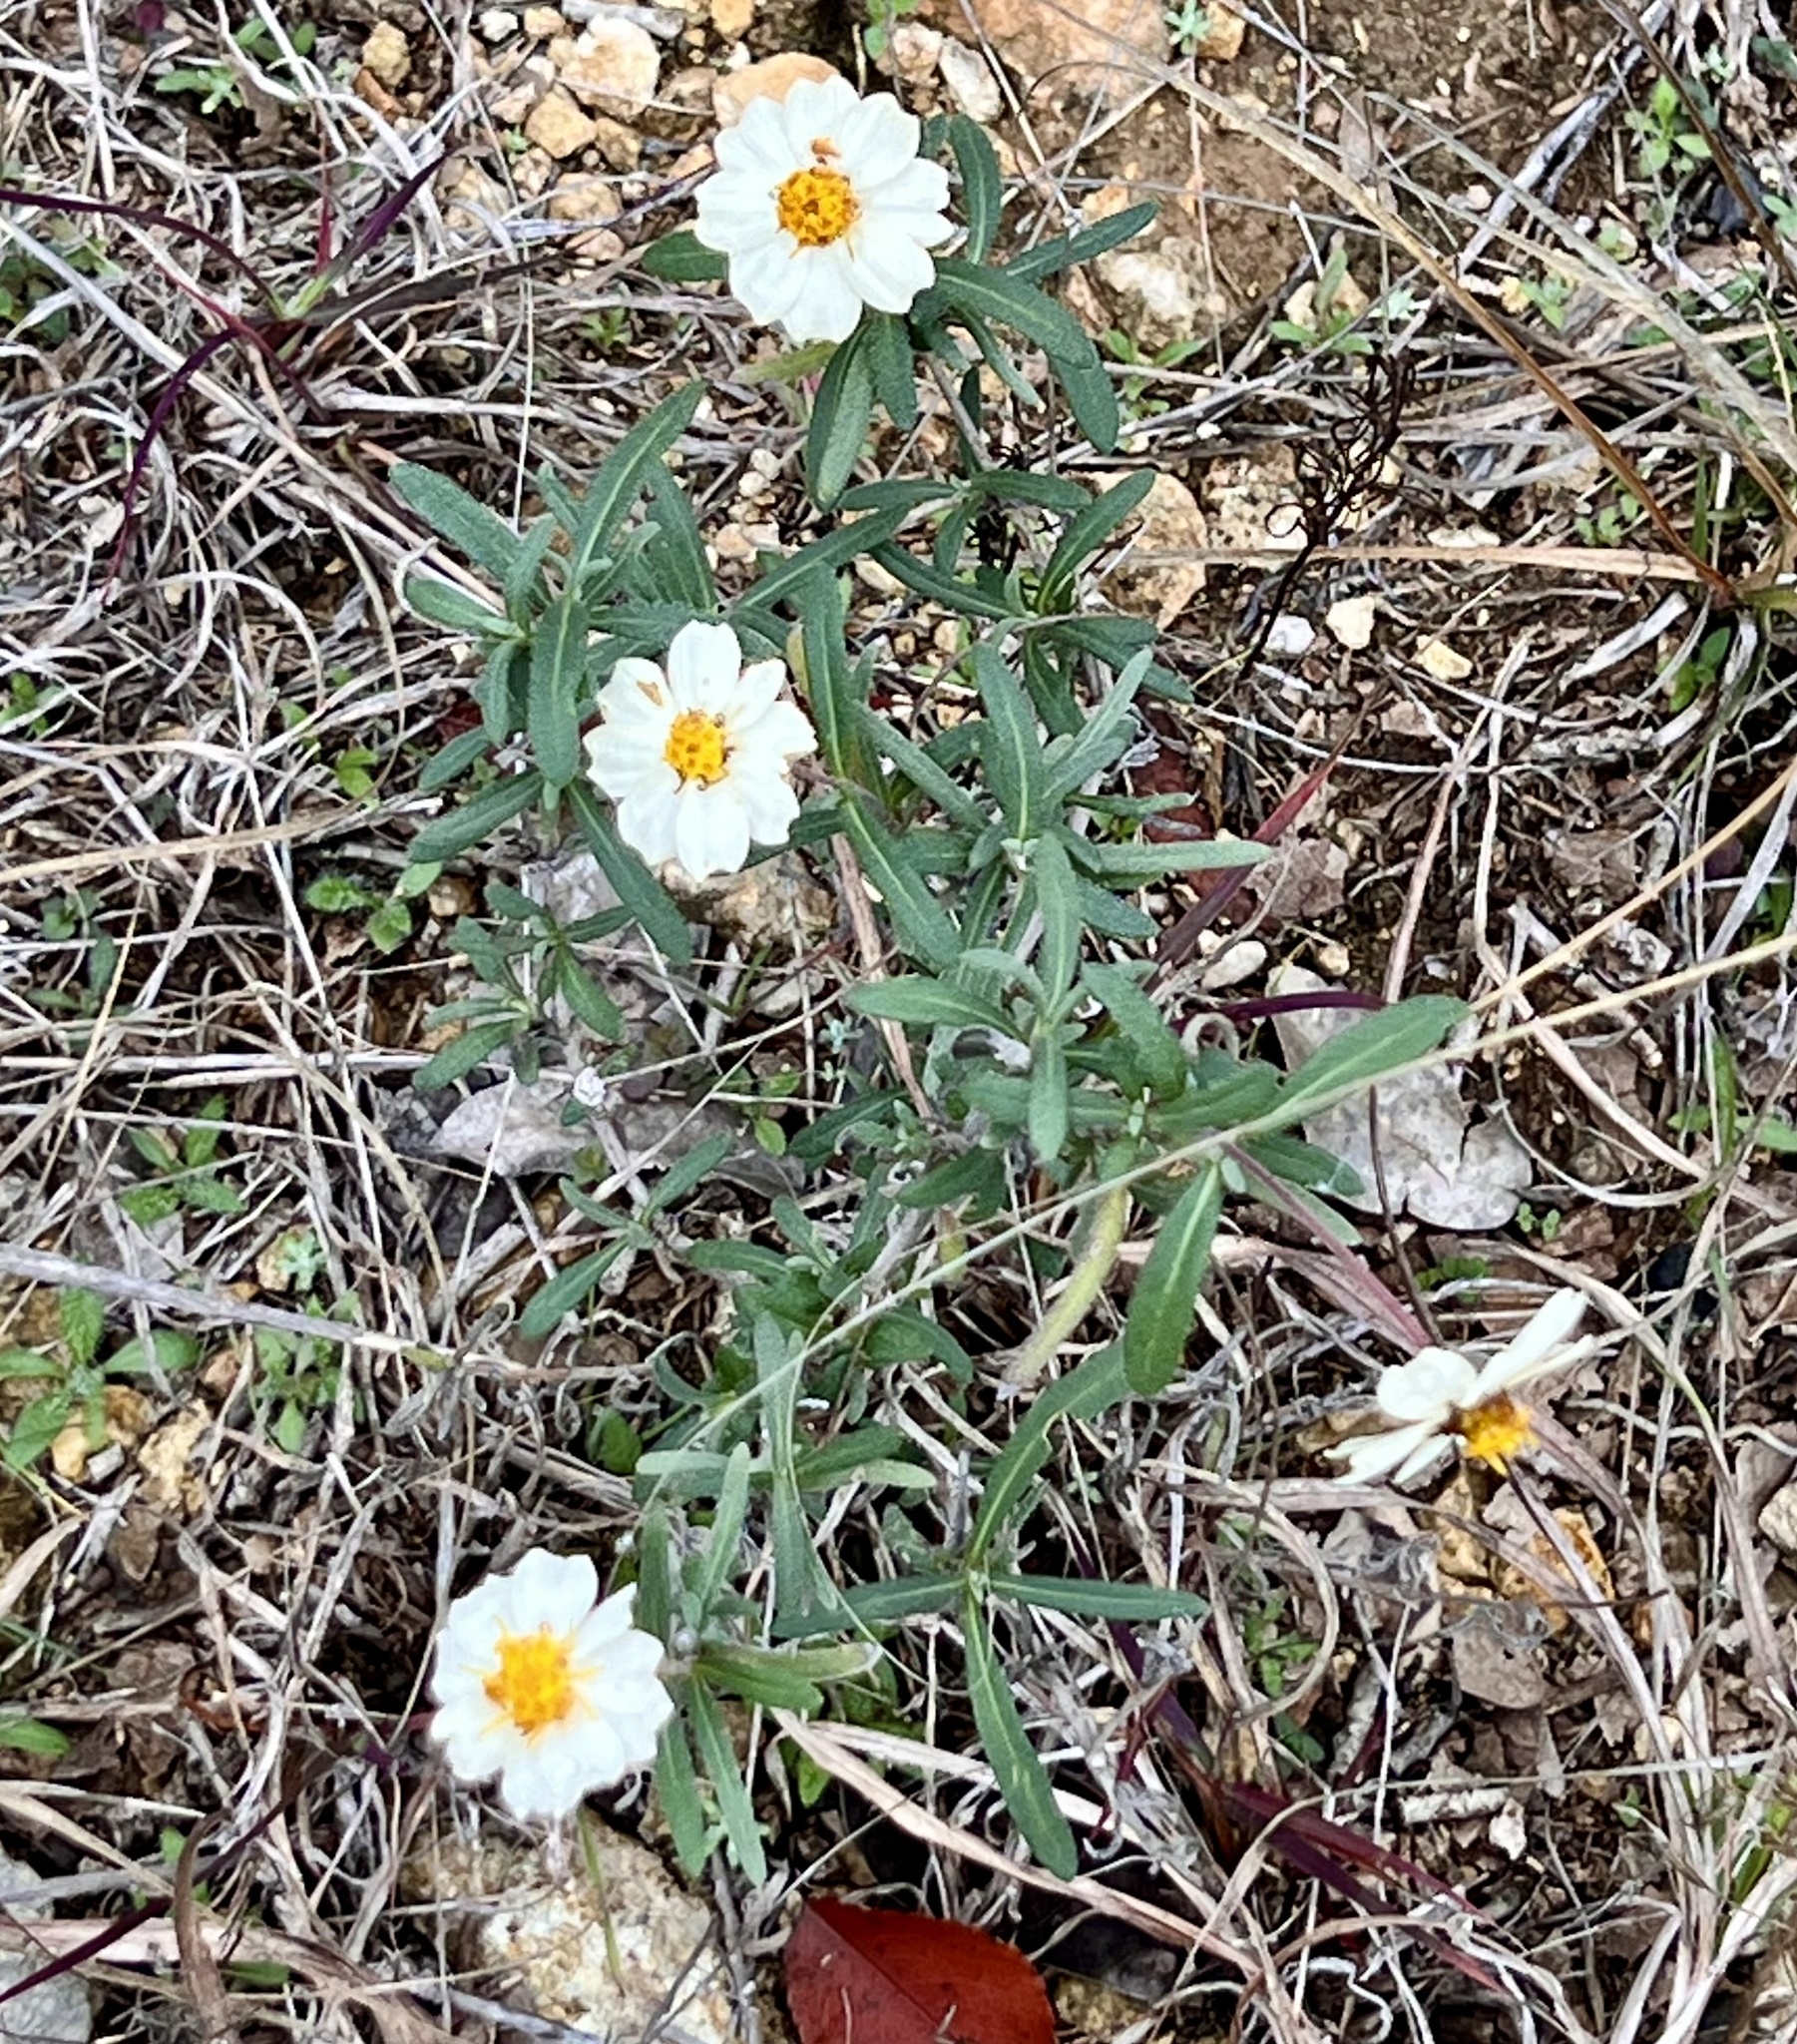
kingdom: Plantae
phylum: Tracheophyta
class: Magnoliopsida
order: Asterales
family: Asteraceae
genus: Melampodium
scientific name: Melampodium leucanthum
